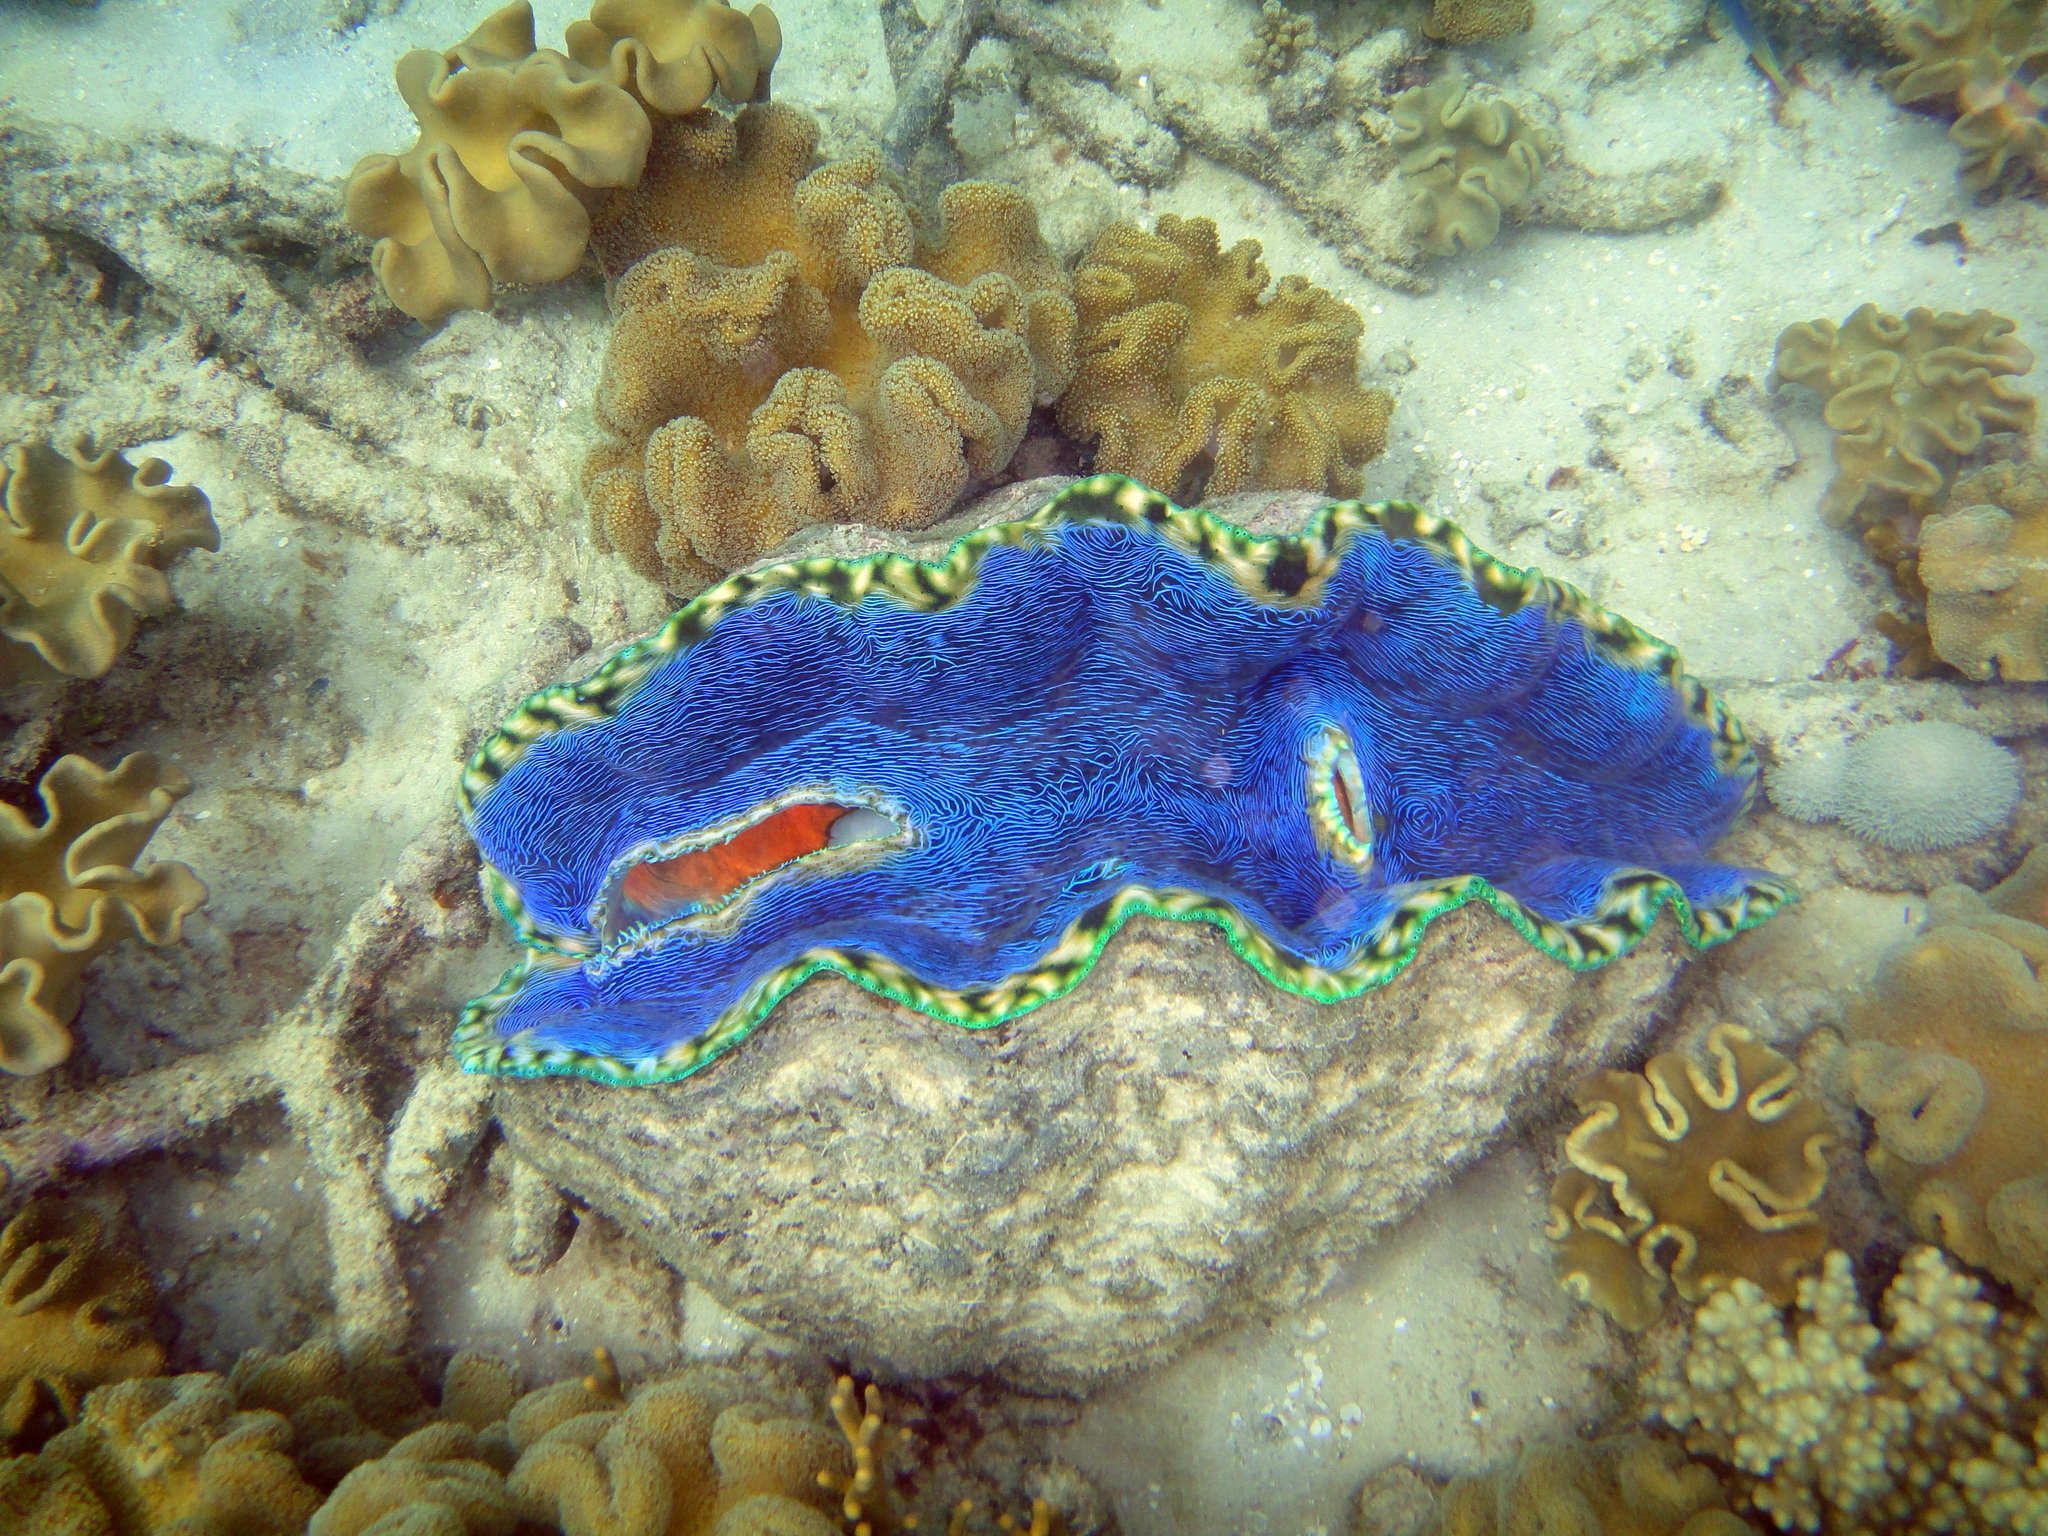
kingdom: Animalia
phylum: Mollusca
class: Bivalvia
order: Cardiida
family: Cardiidae
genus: Tridacna
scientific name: Tridacna derasa
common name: Southern giant clam
